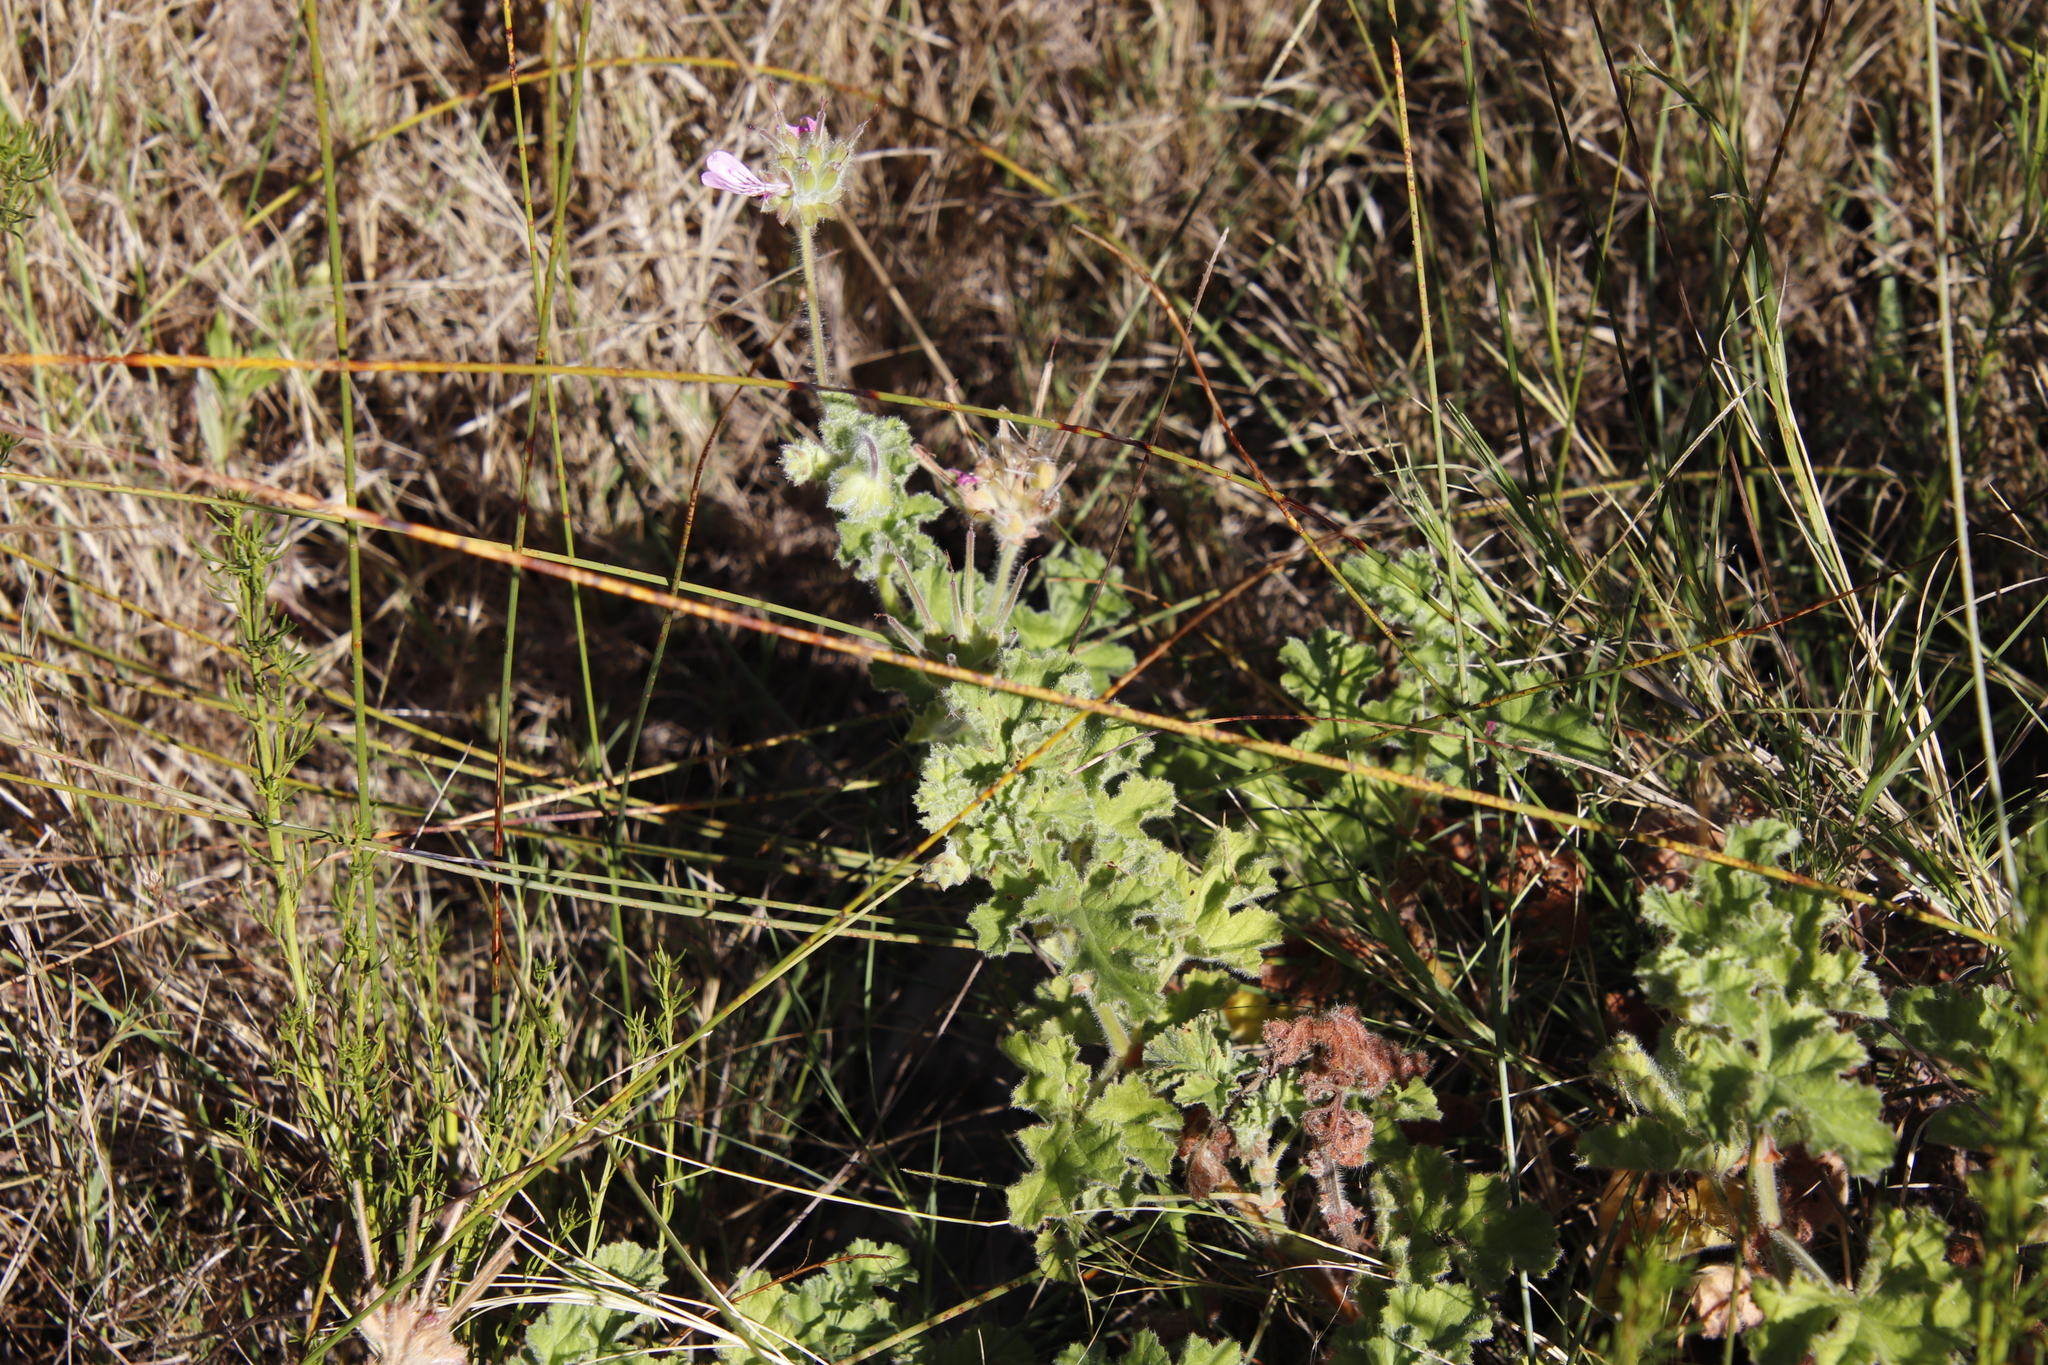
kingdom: Plantae
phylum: Tracheophyta
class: Magnoliopsida
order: Geraniales
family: Geraniaceae
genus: Pelargonium
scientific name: Pelargonium capitatum
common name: Rose scented geranium
